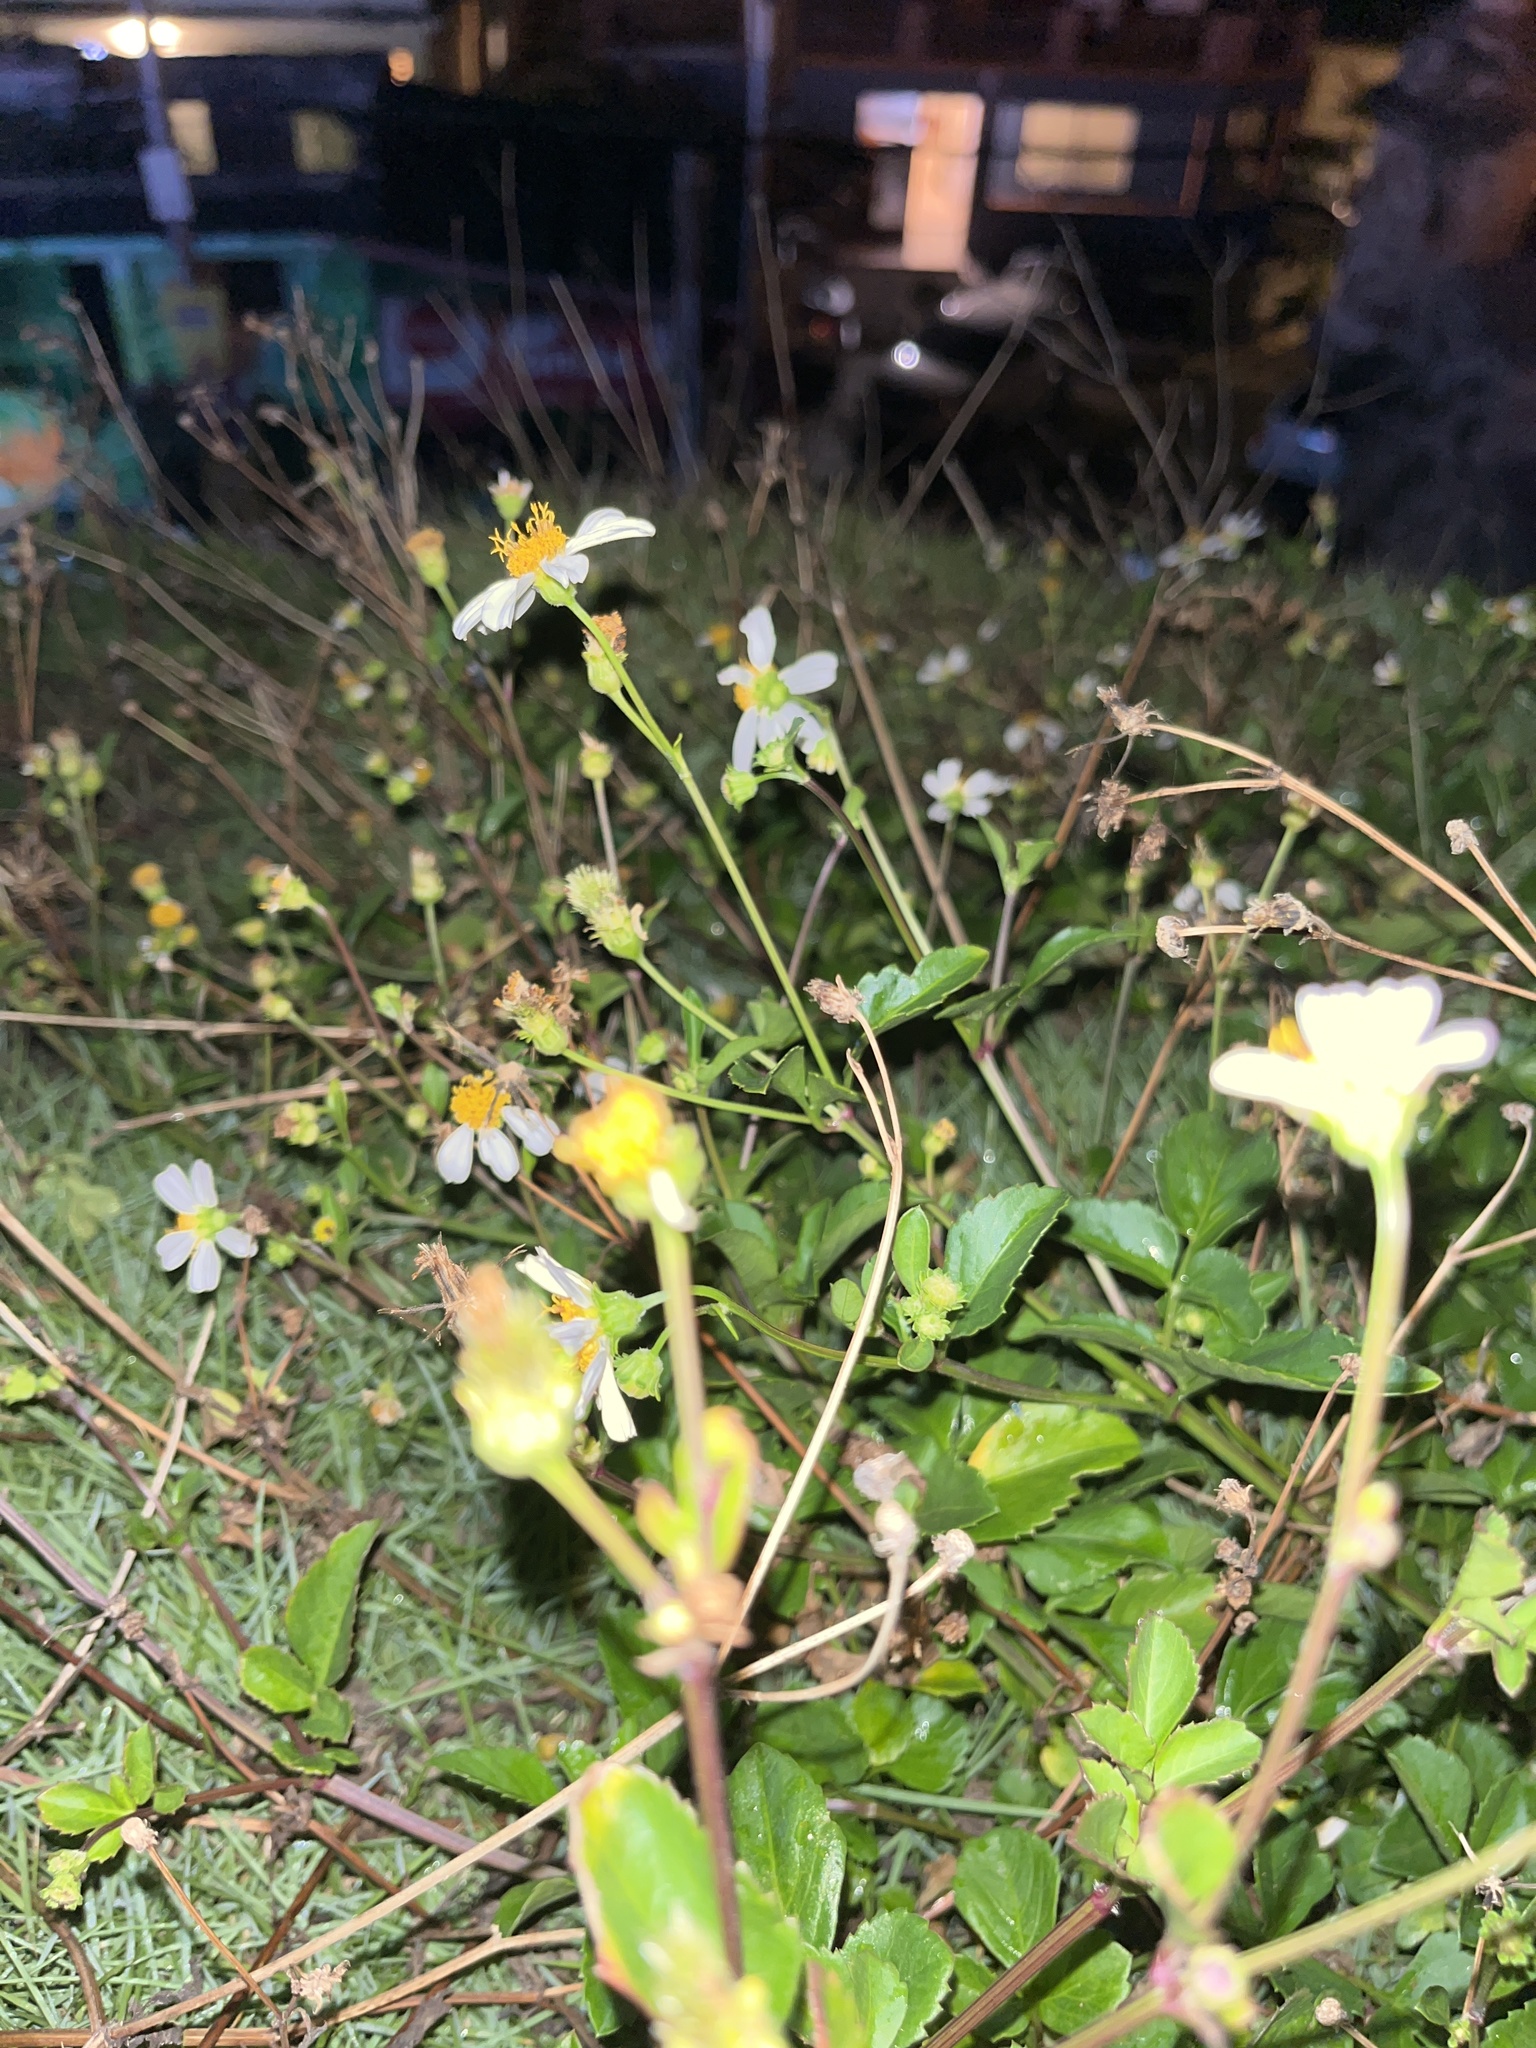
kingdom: Plantae
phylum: Tracheophyta
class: Magnoliopsida
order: Asterales
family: Asteraceae
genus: Bidens
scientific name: Bidens alba
